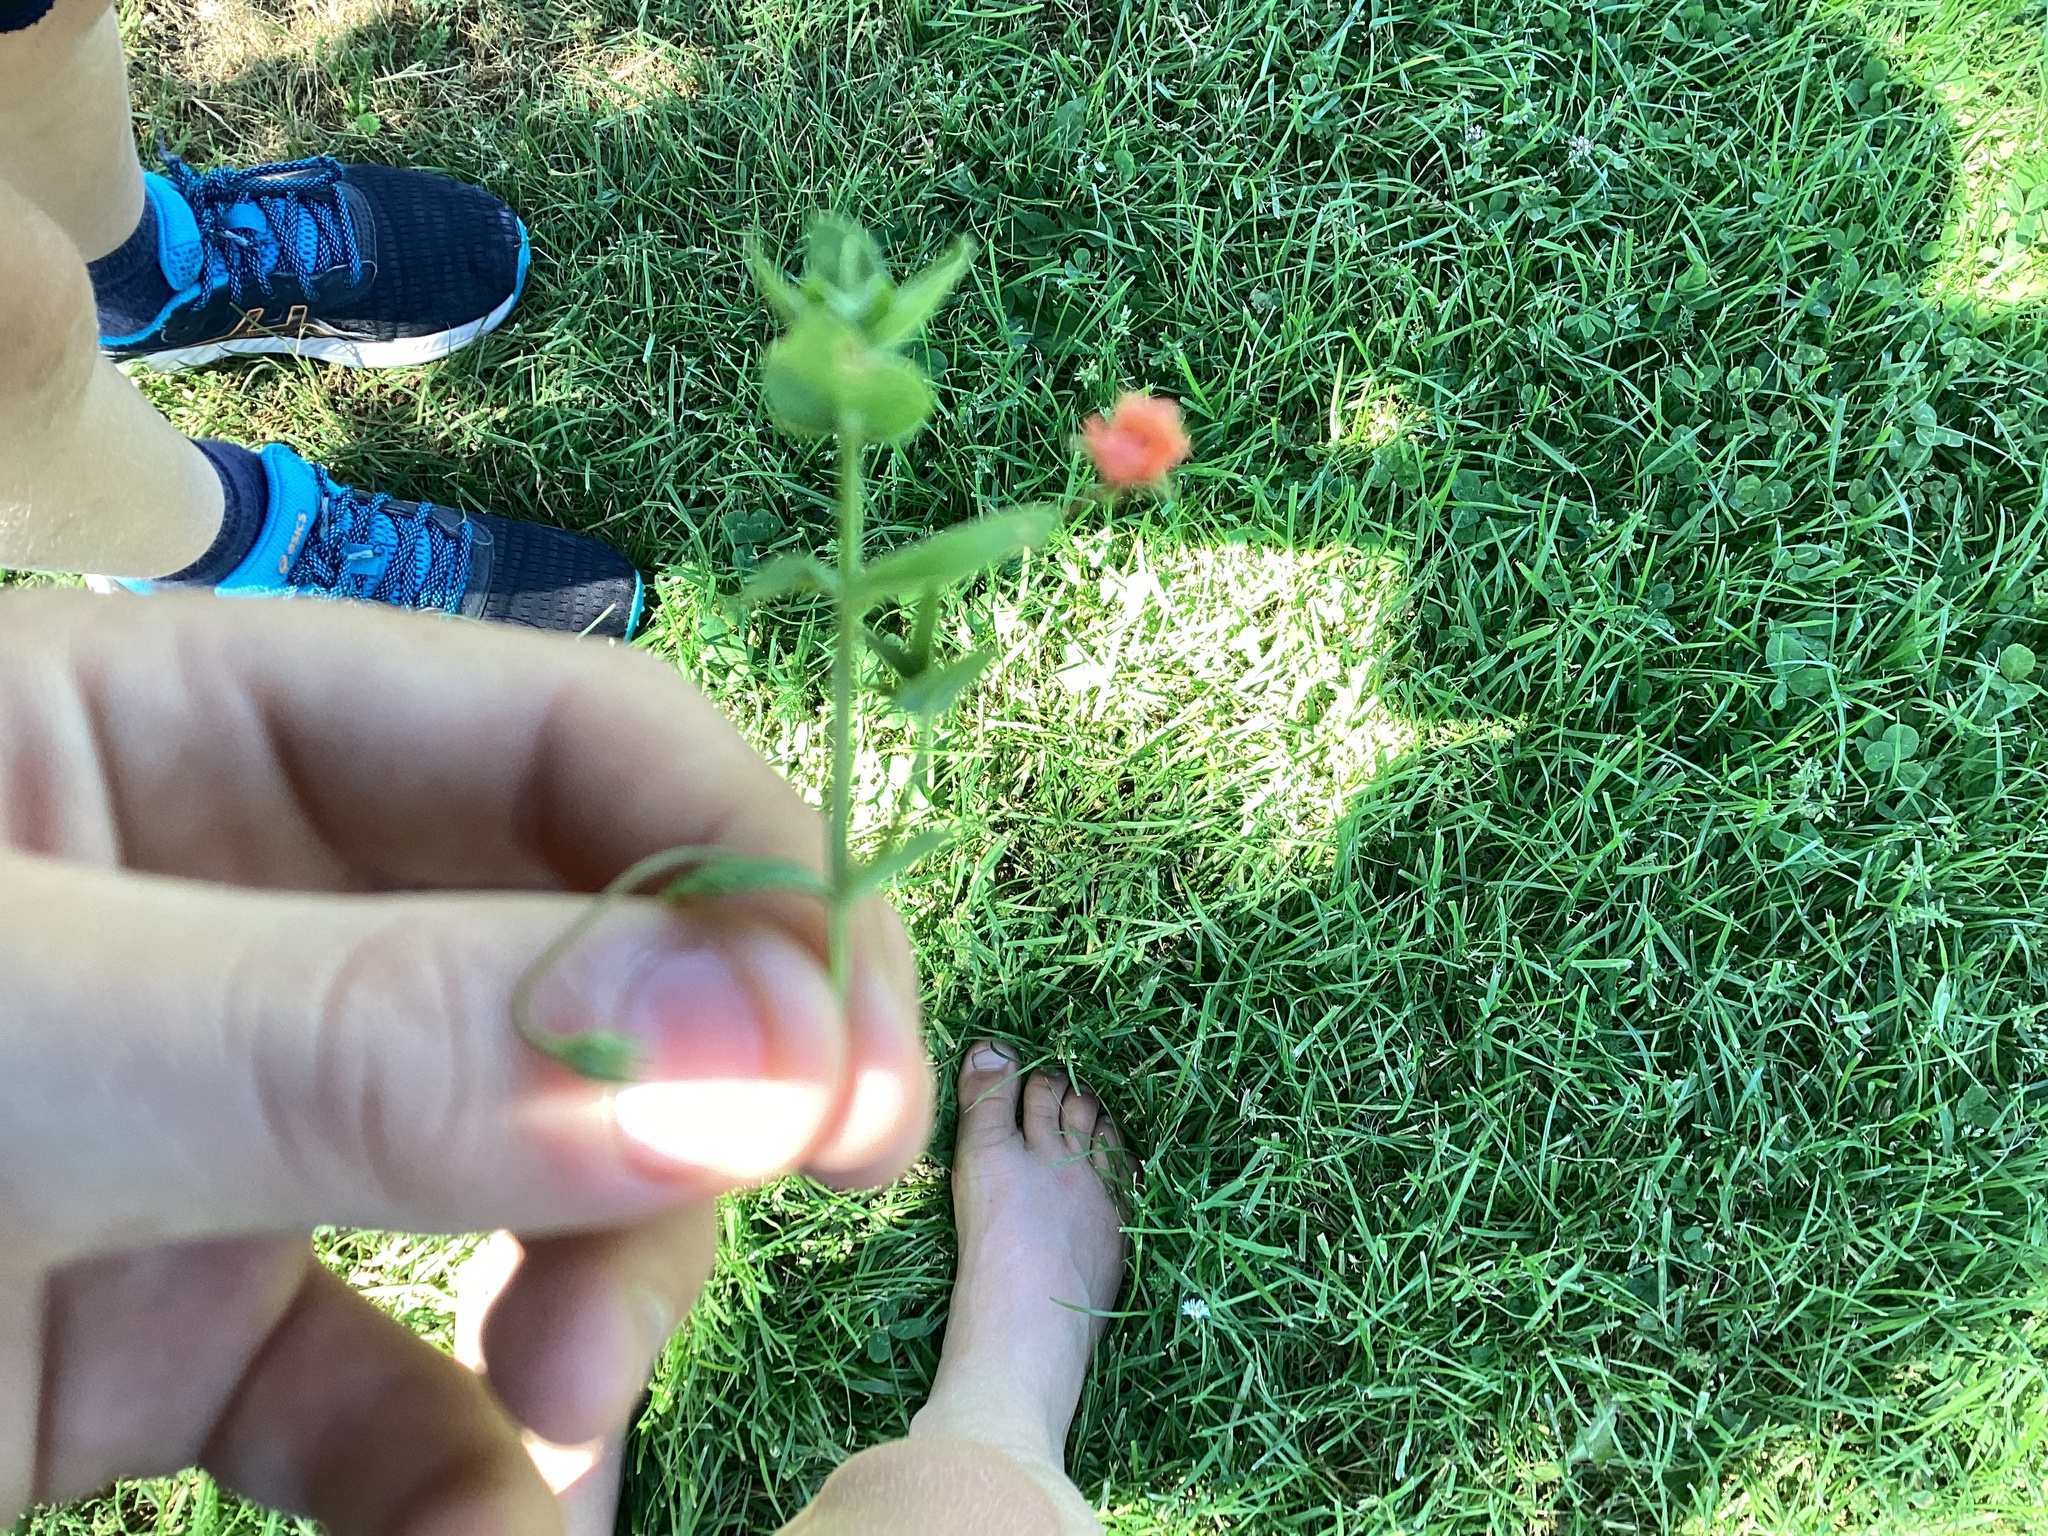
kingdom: Plantae
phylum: Tracheophyta
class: Magnoliopsida
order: Ericales
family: Primulaceae
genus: Lysimachia
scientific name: Lysimachia arvensis
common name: Scarlet pimpernel
